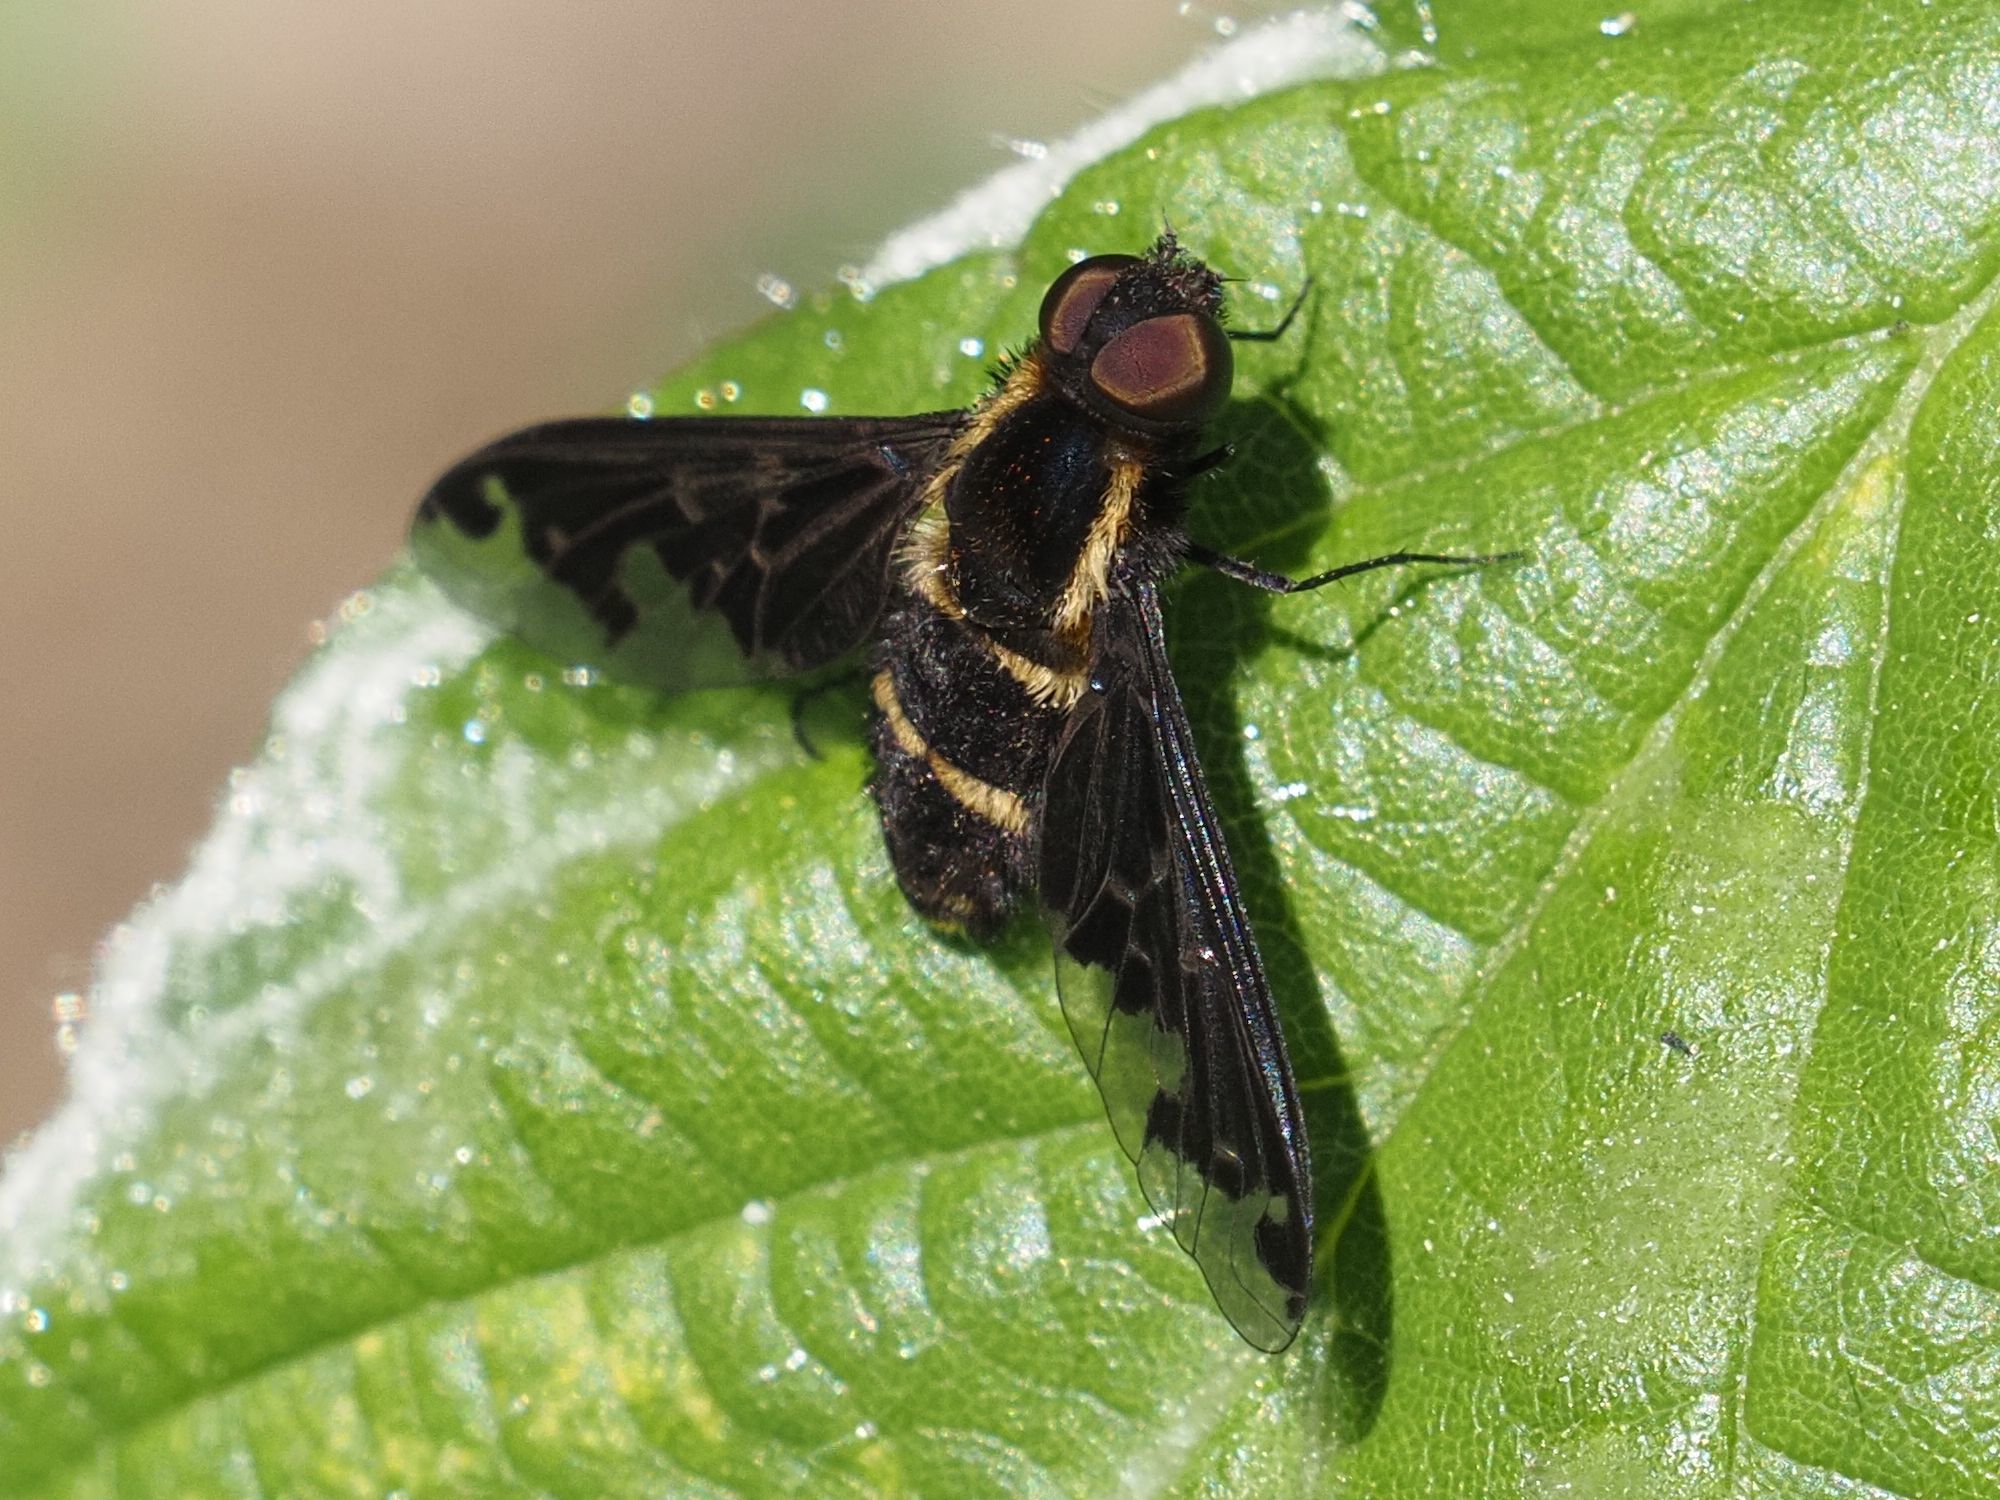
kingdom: Animalia
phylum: Arthropoda
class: Insecta
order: Diptera
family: Bombyliidae
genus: Hemipenthes
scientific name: Hemipenthes maura
